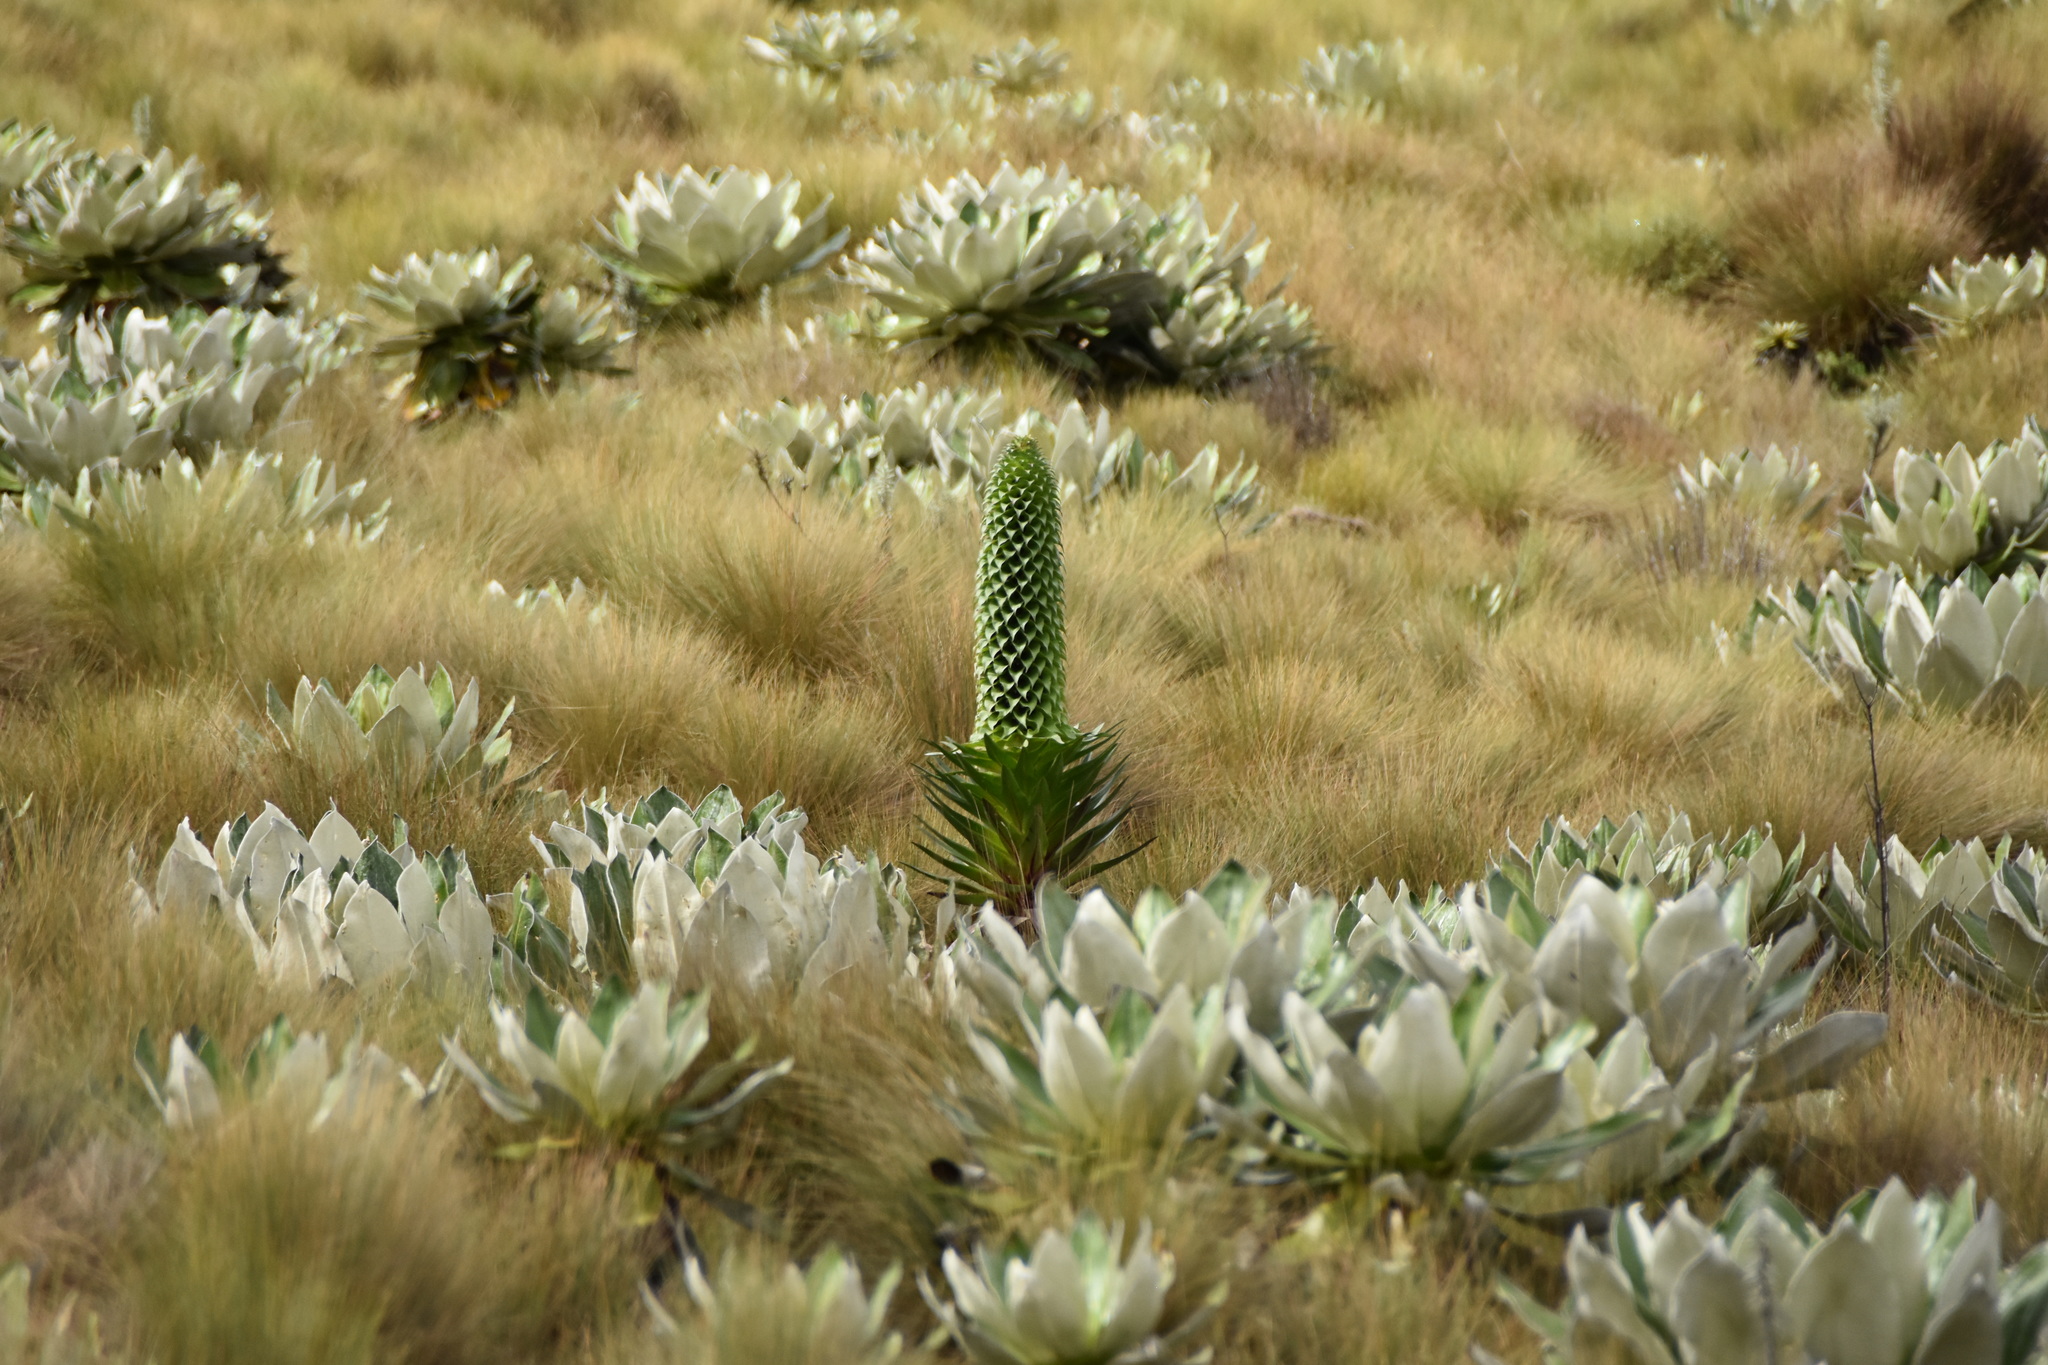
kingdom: Plantae
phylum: Tracheophyta
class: Magnoliopsida
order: Asterales
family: Asteraceae
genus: Dendrosenecio
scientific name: Dendrosenecio keniensis
